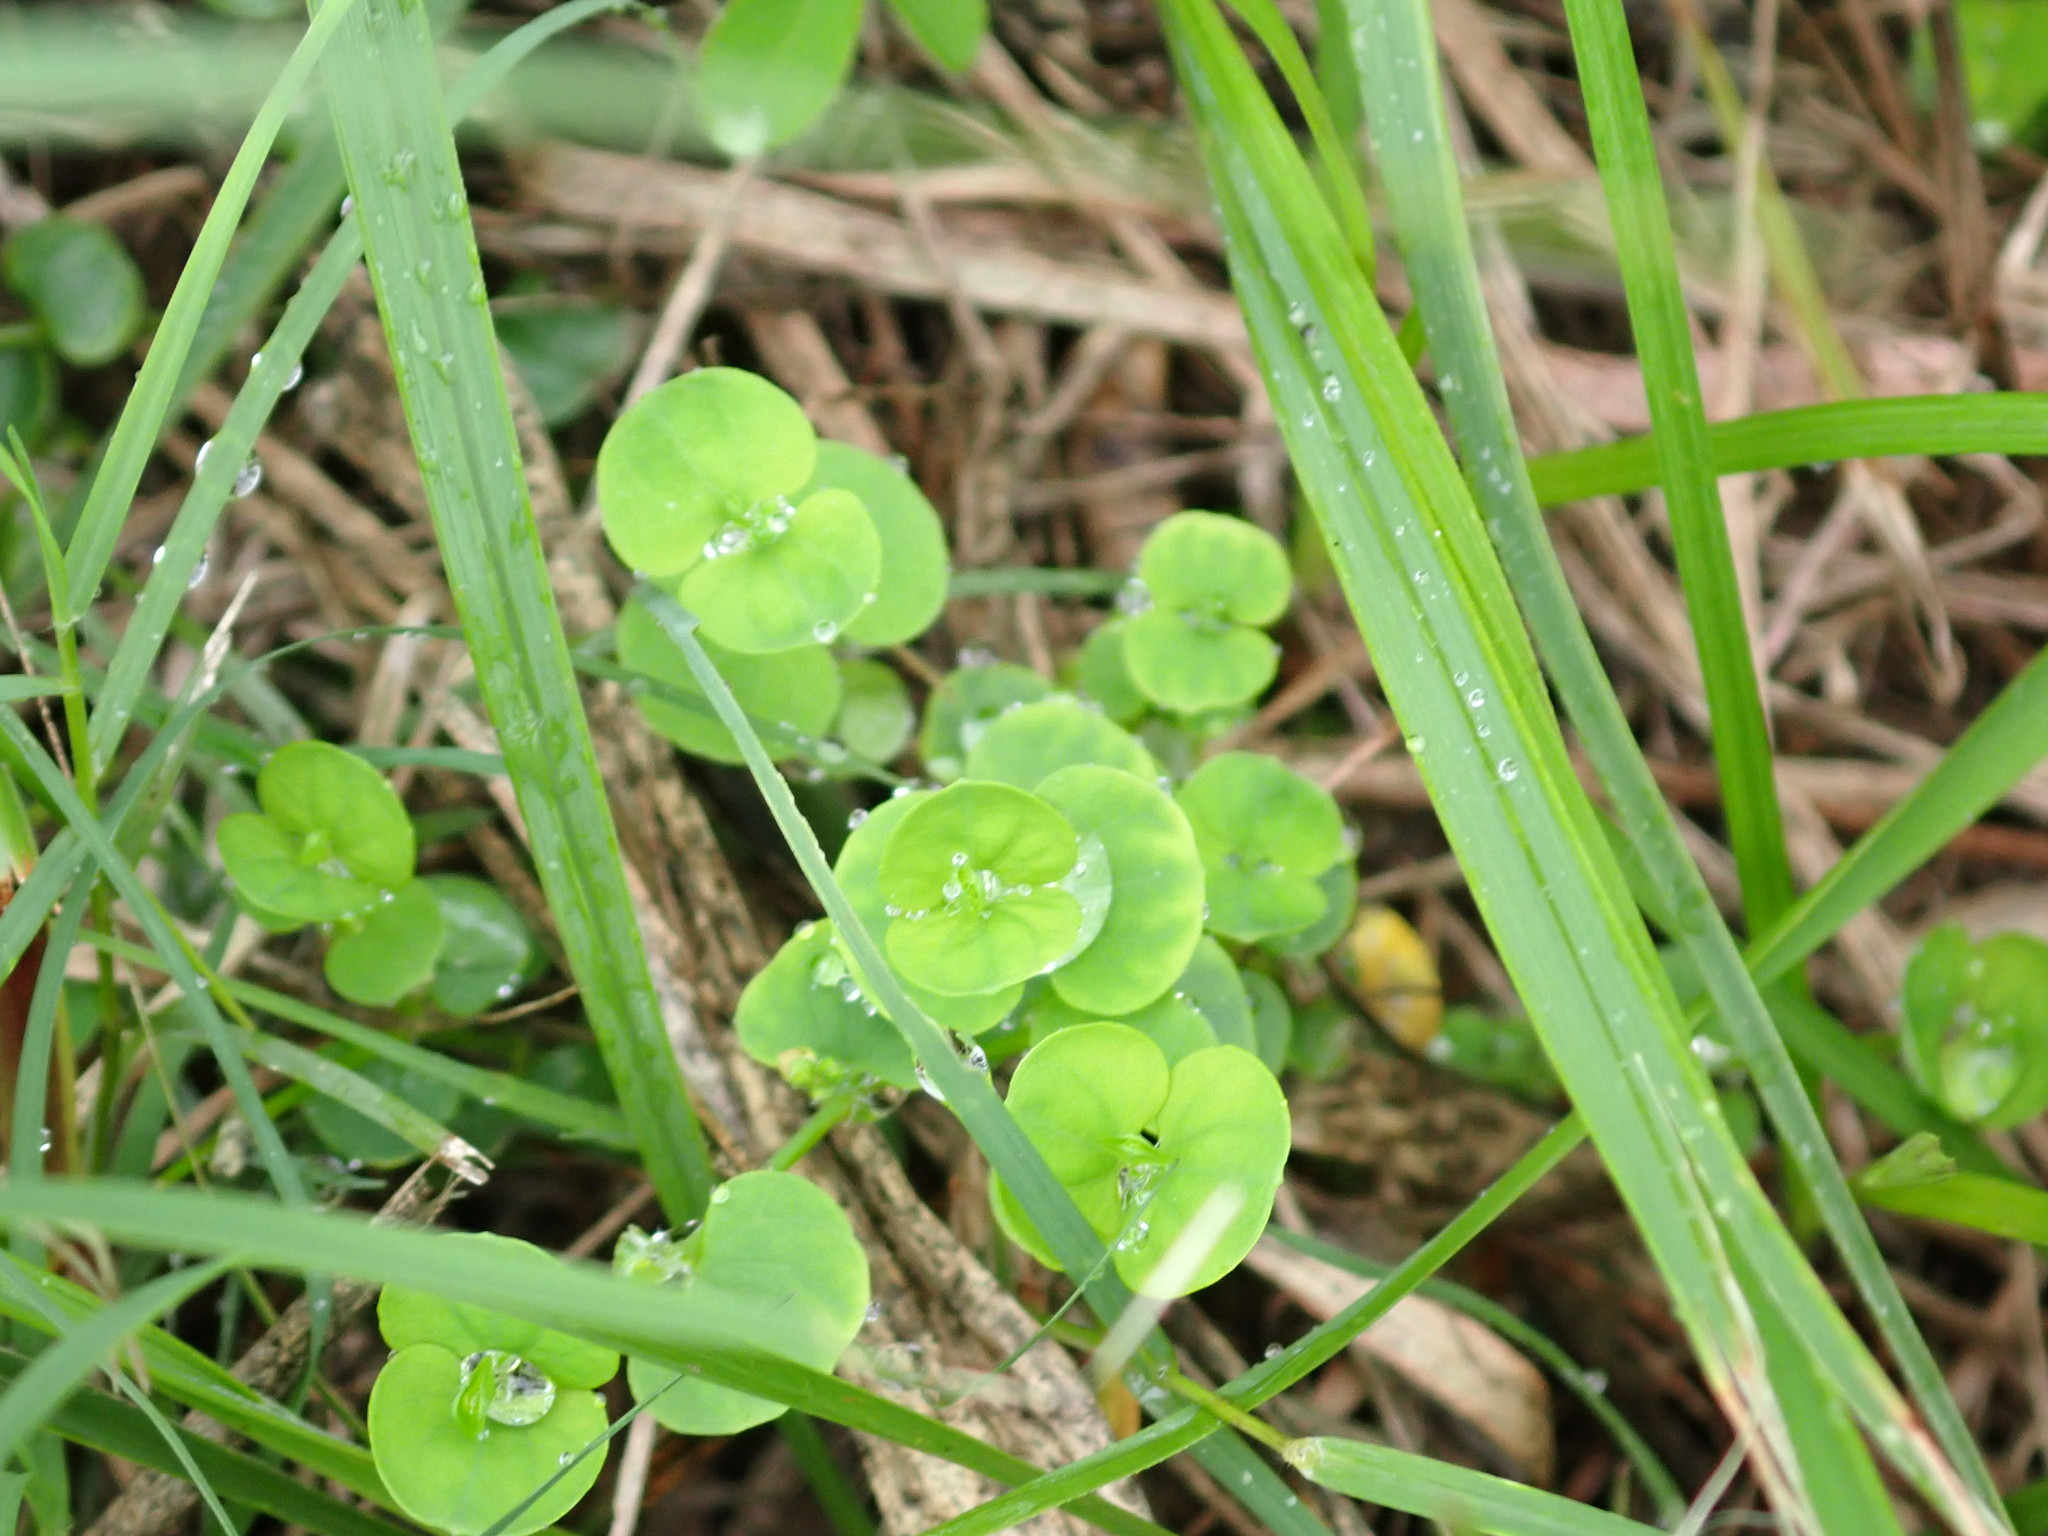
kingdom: Plantae
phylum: Tracheophyta
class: Magnoliopsida
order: Caryophyllales
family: Caryophyllaceae
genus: Drymaria
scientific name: Drymaria cordata
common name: Whitesnow
